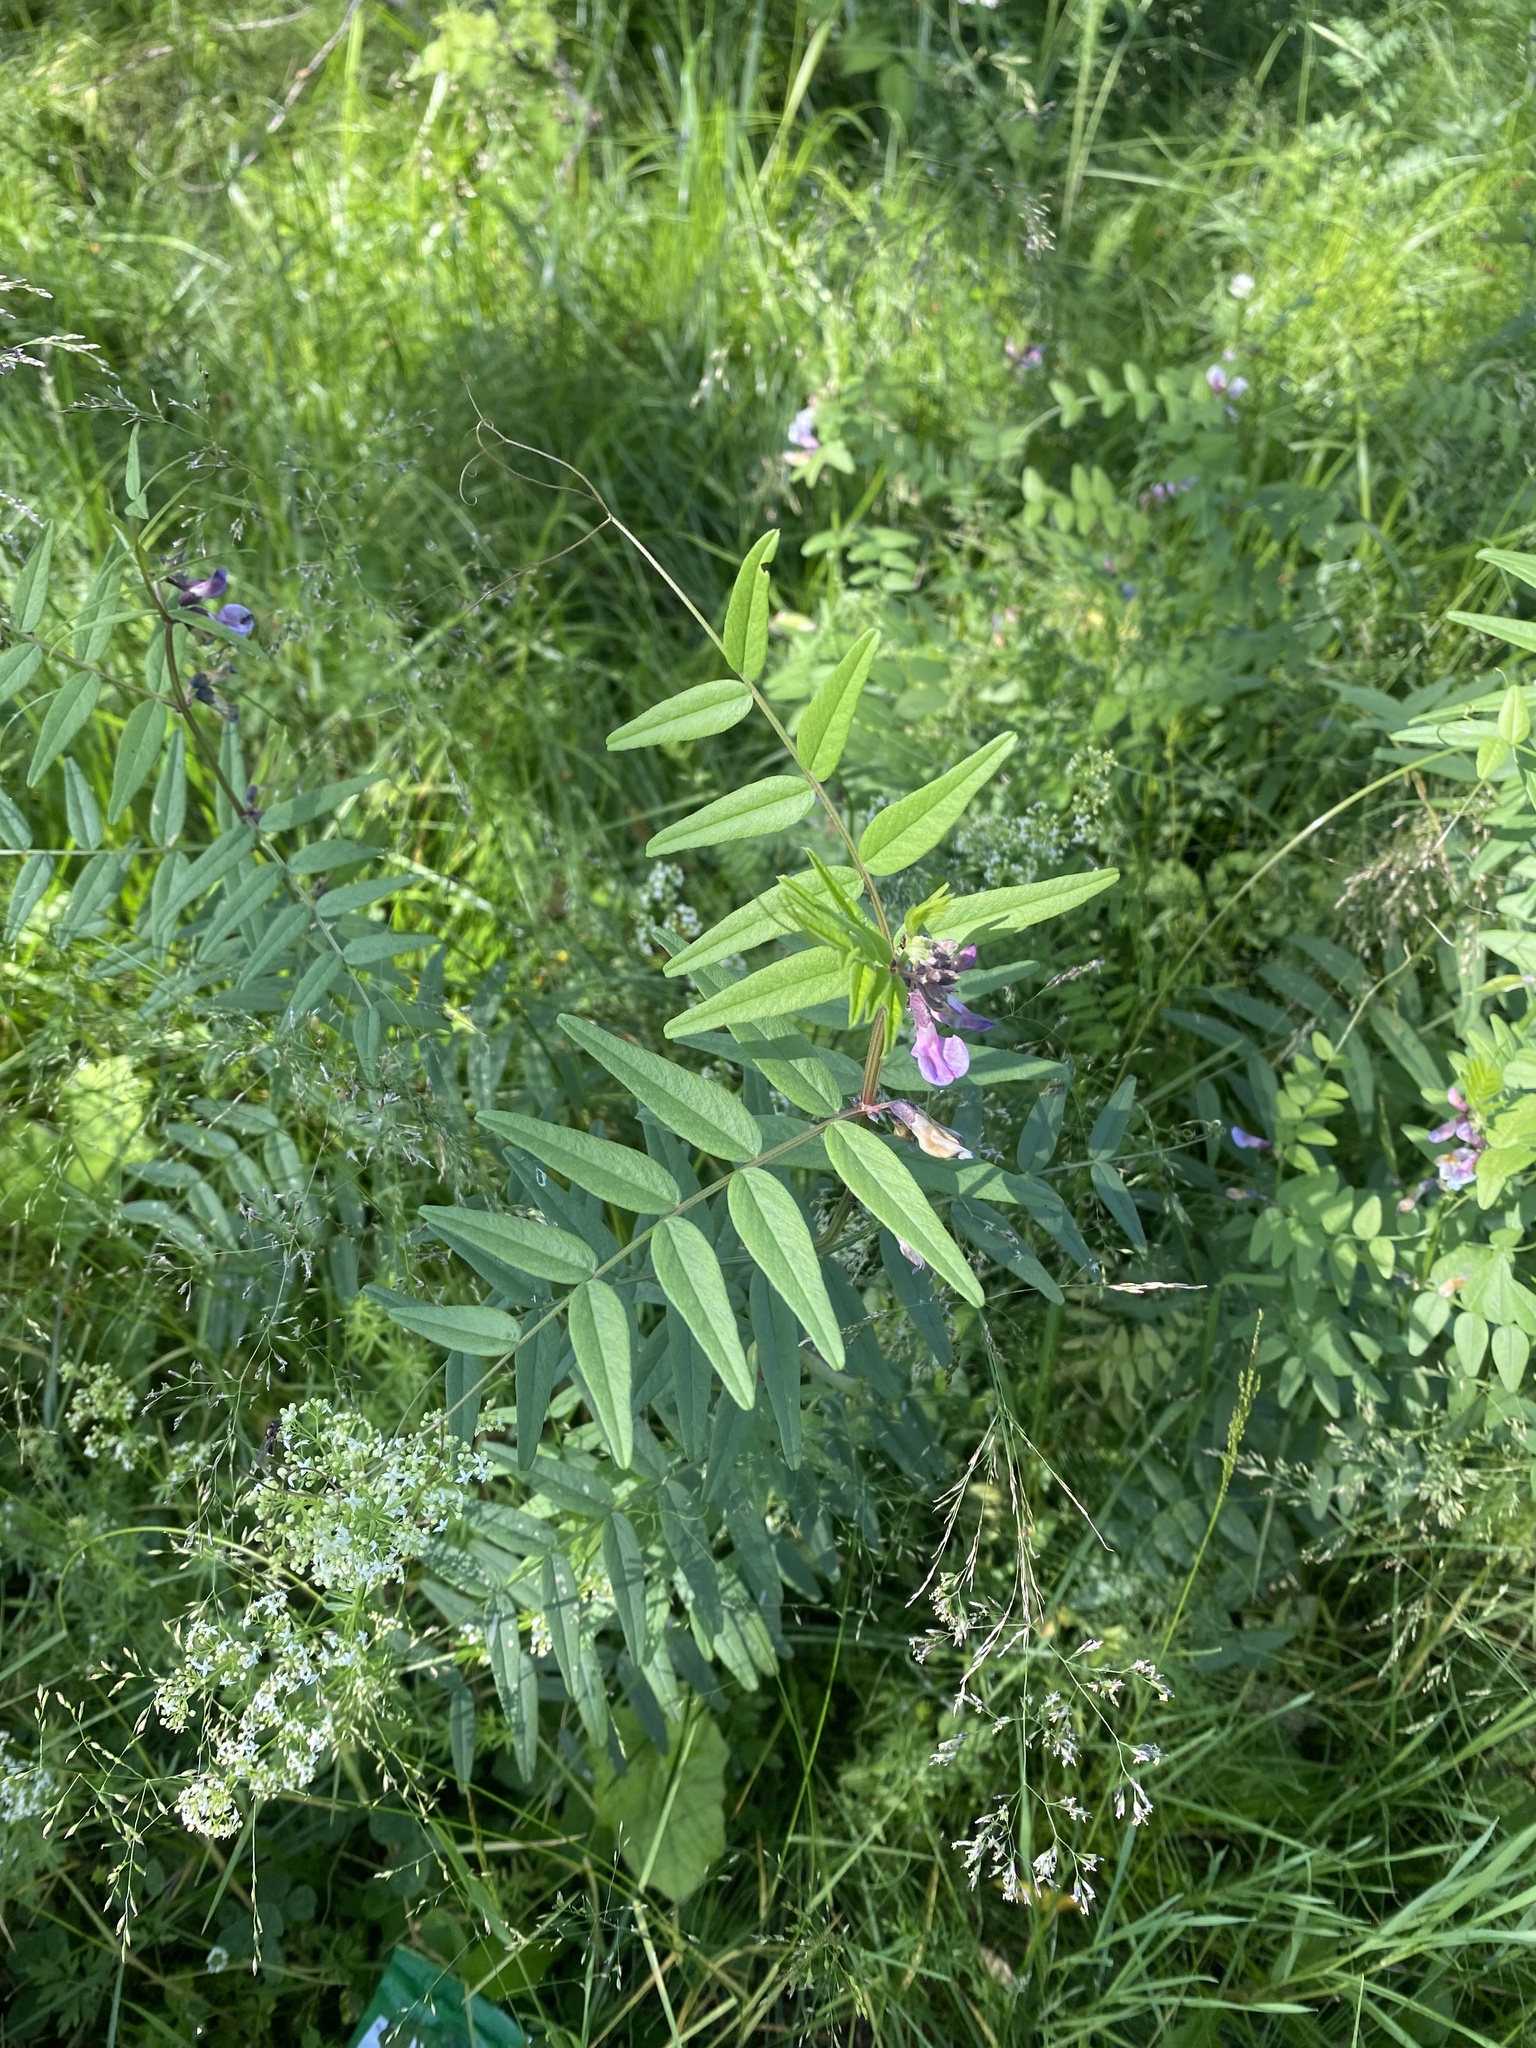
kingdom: Plantae
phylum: Tracheophyta
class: Magnoliopsida
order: Fabales
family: Fabaceae
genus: Vicia
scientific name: Vicia sepium
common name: Bush vetch
